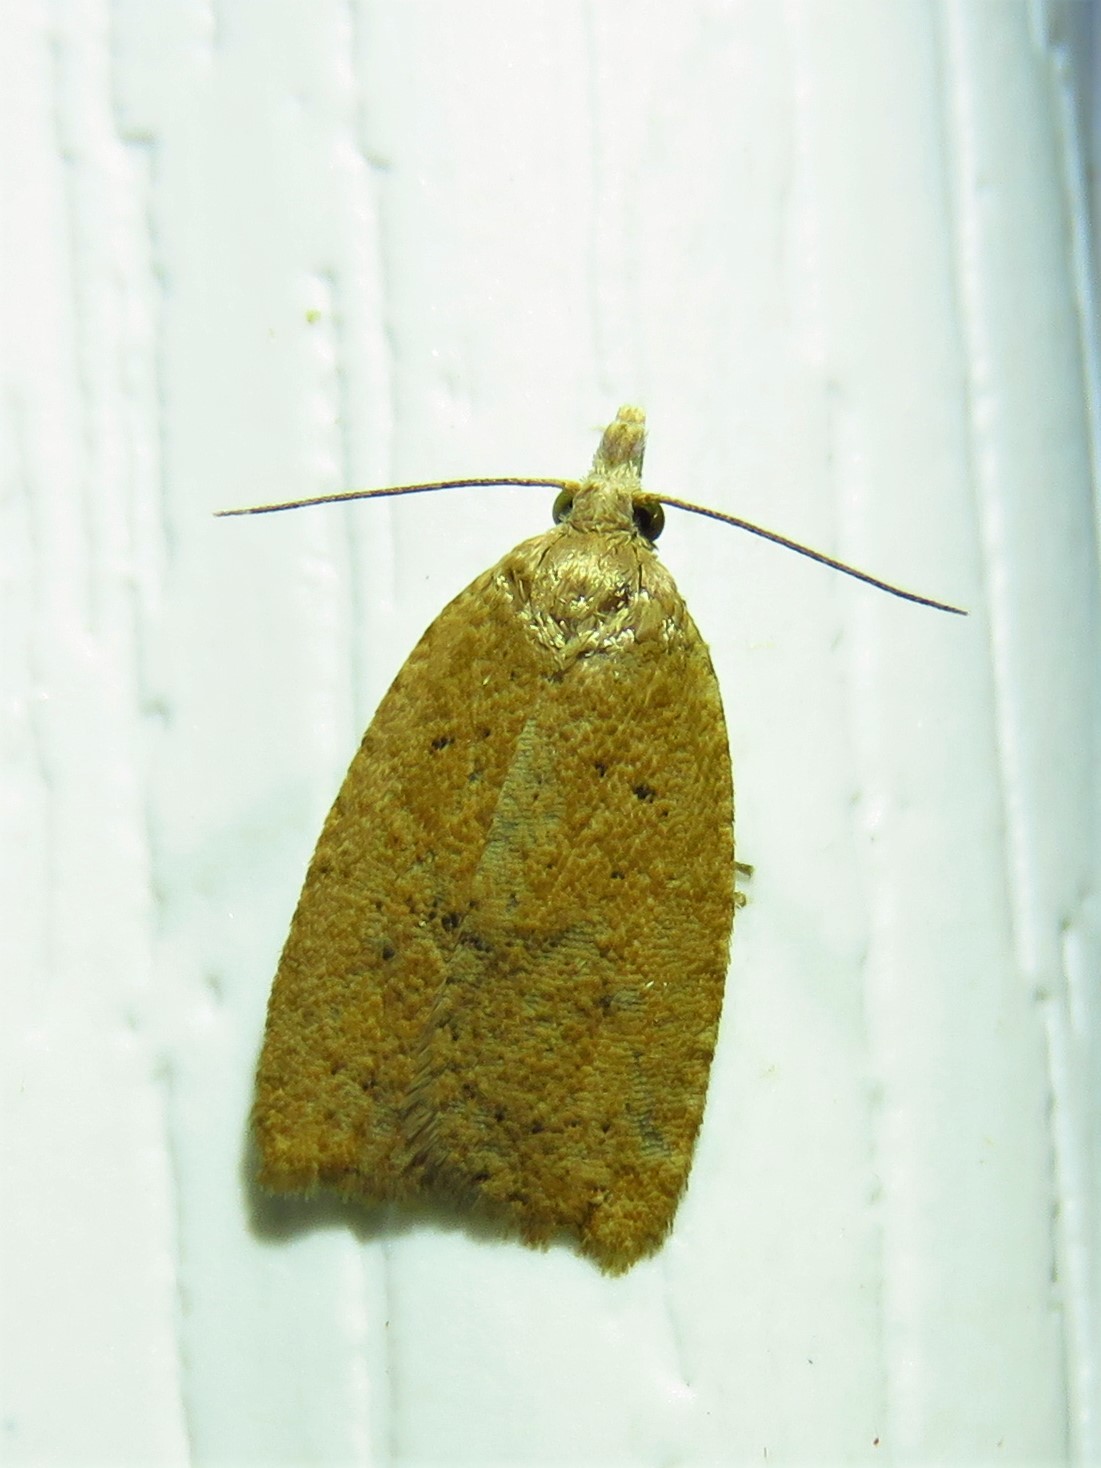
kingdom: Animalia
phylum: Arthropoda
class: Insecta
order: Lepidoptera
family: Tortricidae
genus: Sparganothoides
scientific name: Sparganothoides lentiginosana
